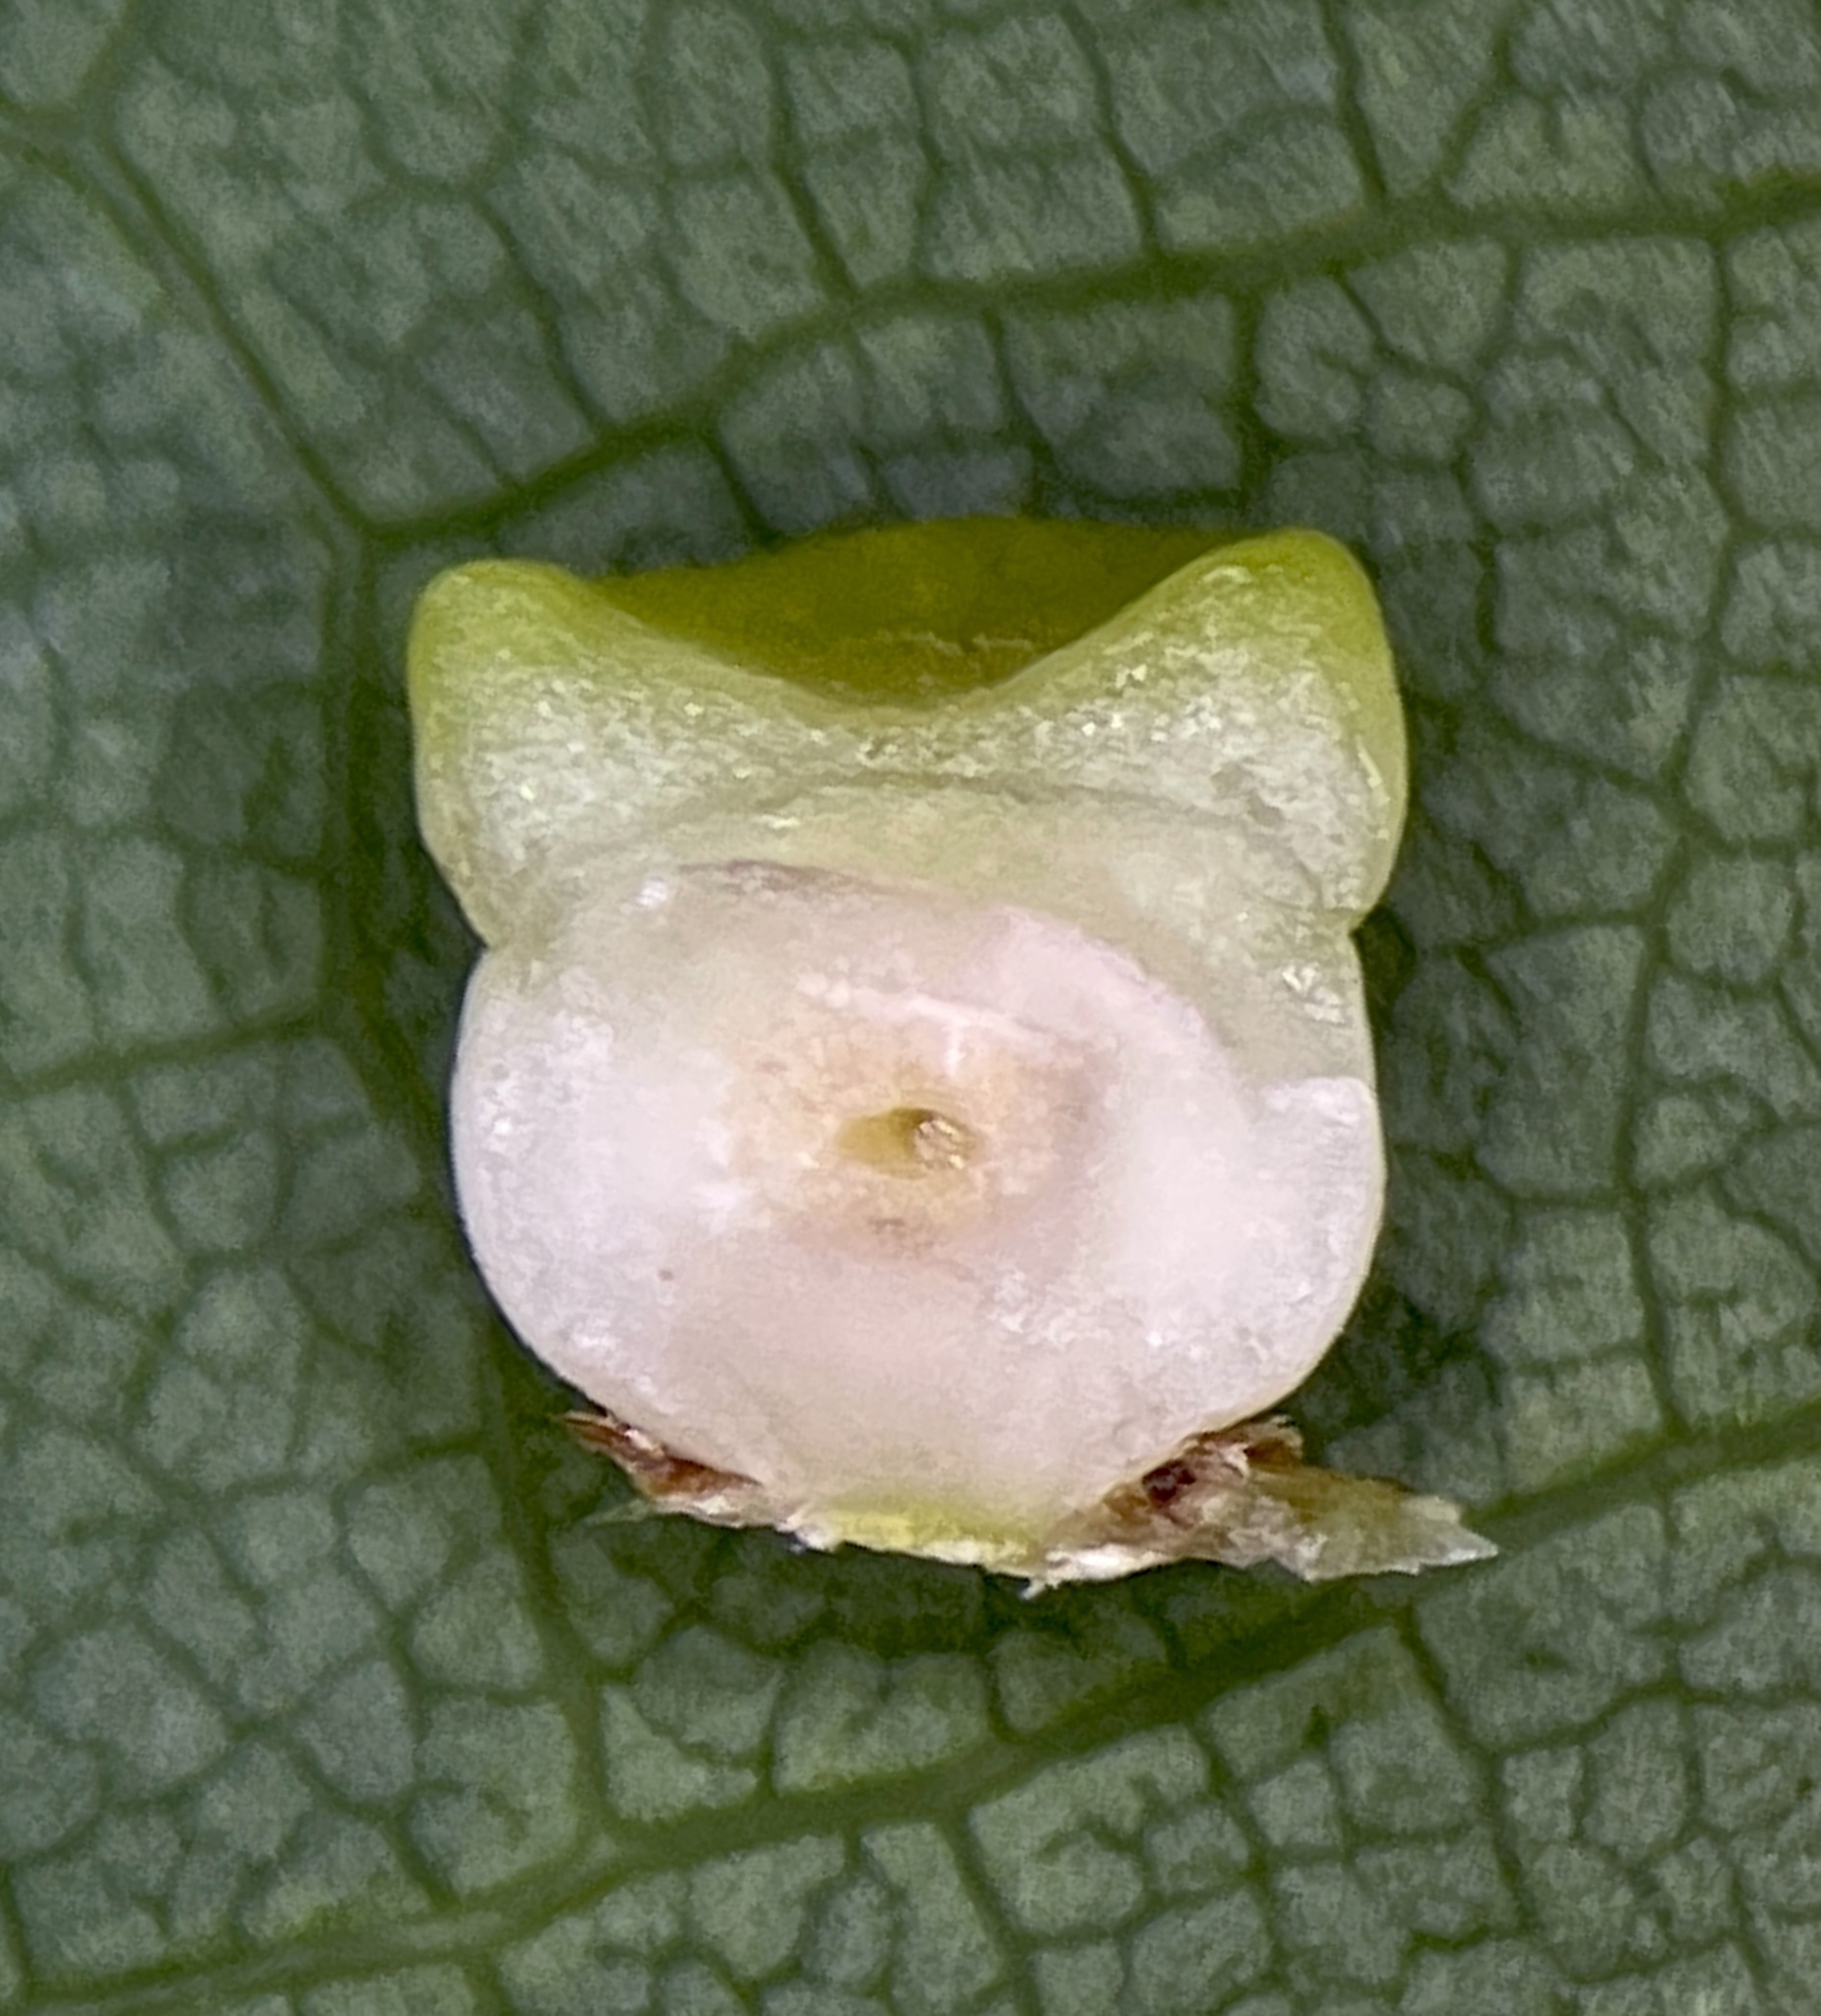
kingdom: Animalia
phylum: Arthropoda
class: Insecta
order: Hymenoptera
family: Cynipidae
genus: Kokkocynips
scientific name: Kokkocynips rileyi
